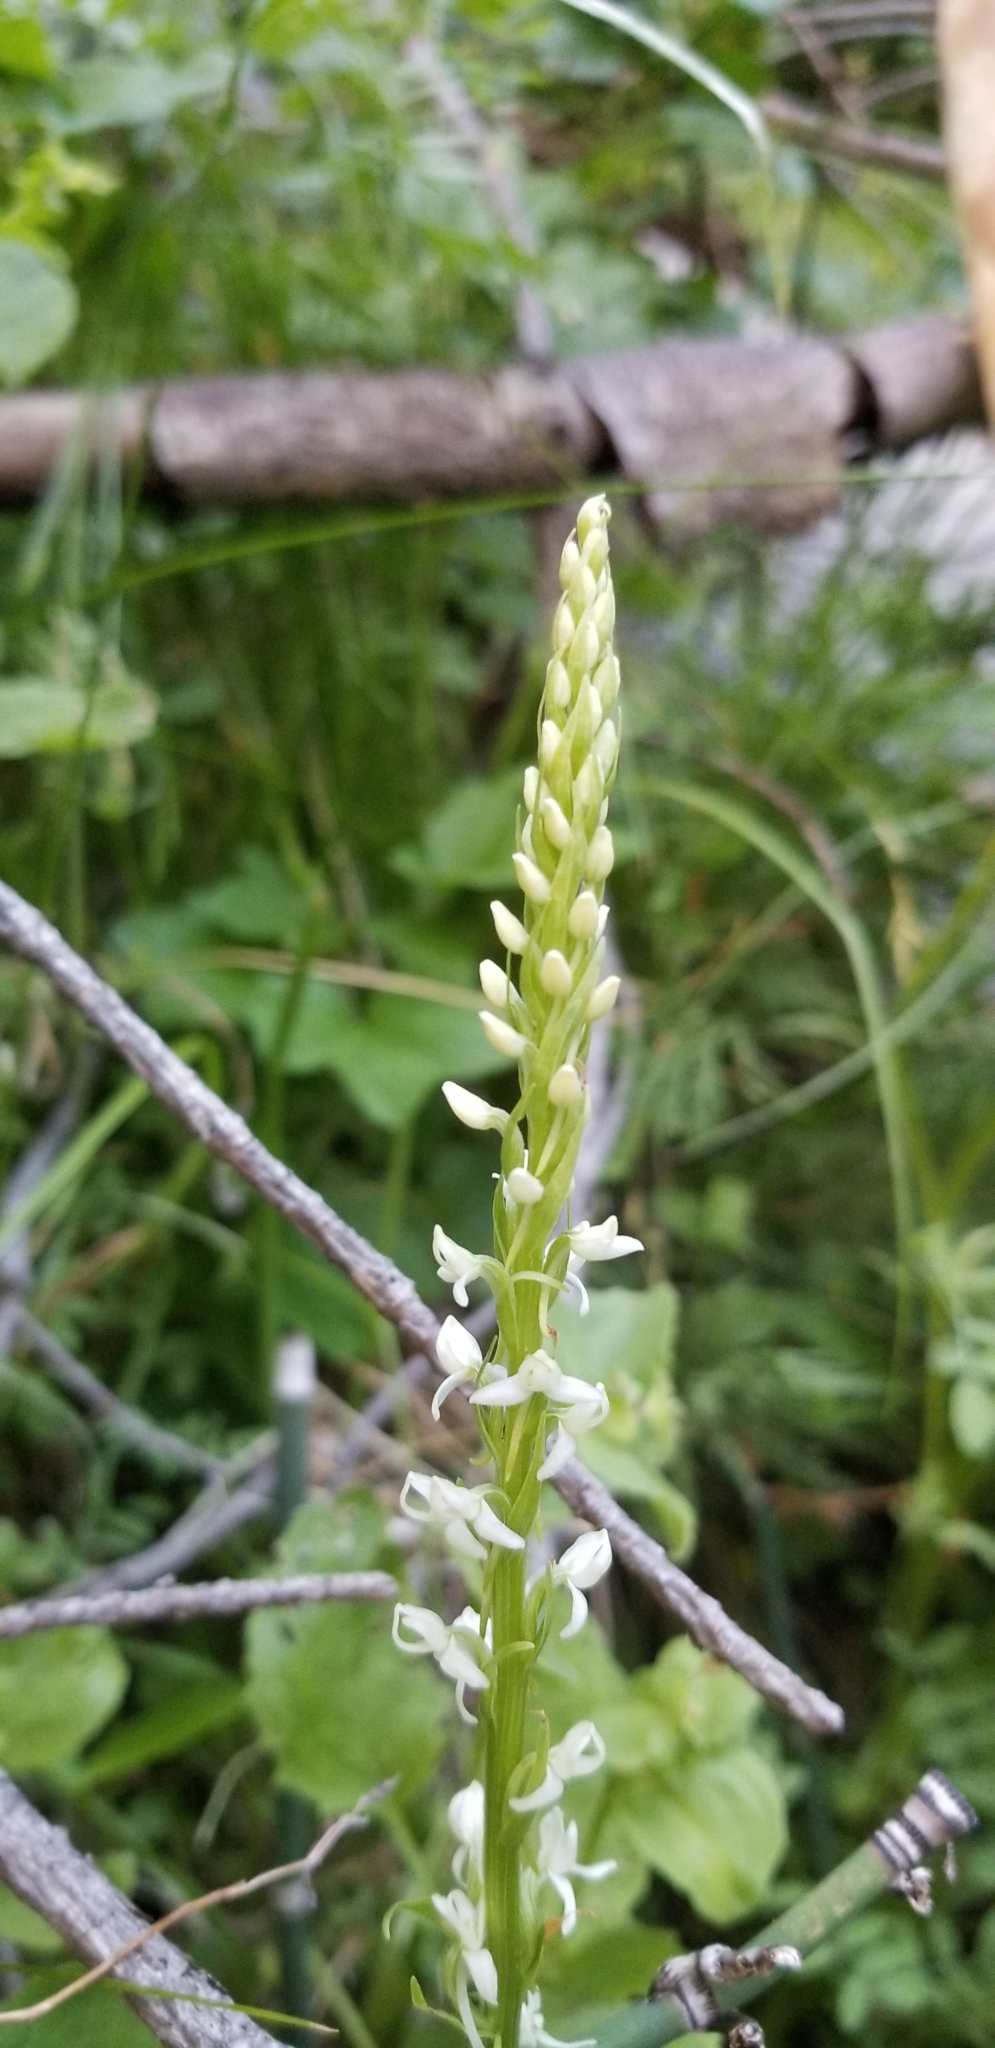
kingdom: Plantae
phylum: Tracheophyta
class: Liliopsida
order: Asparagales
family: Orchidaceae
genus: Platanthera
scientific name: Platanthera dilatata
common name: Bog candles
